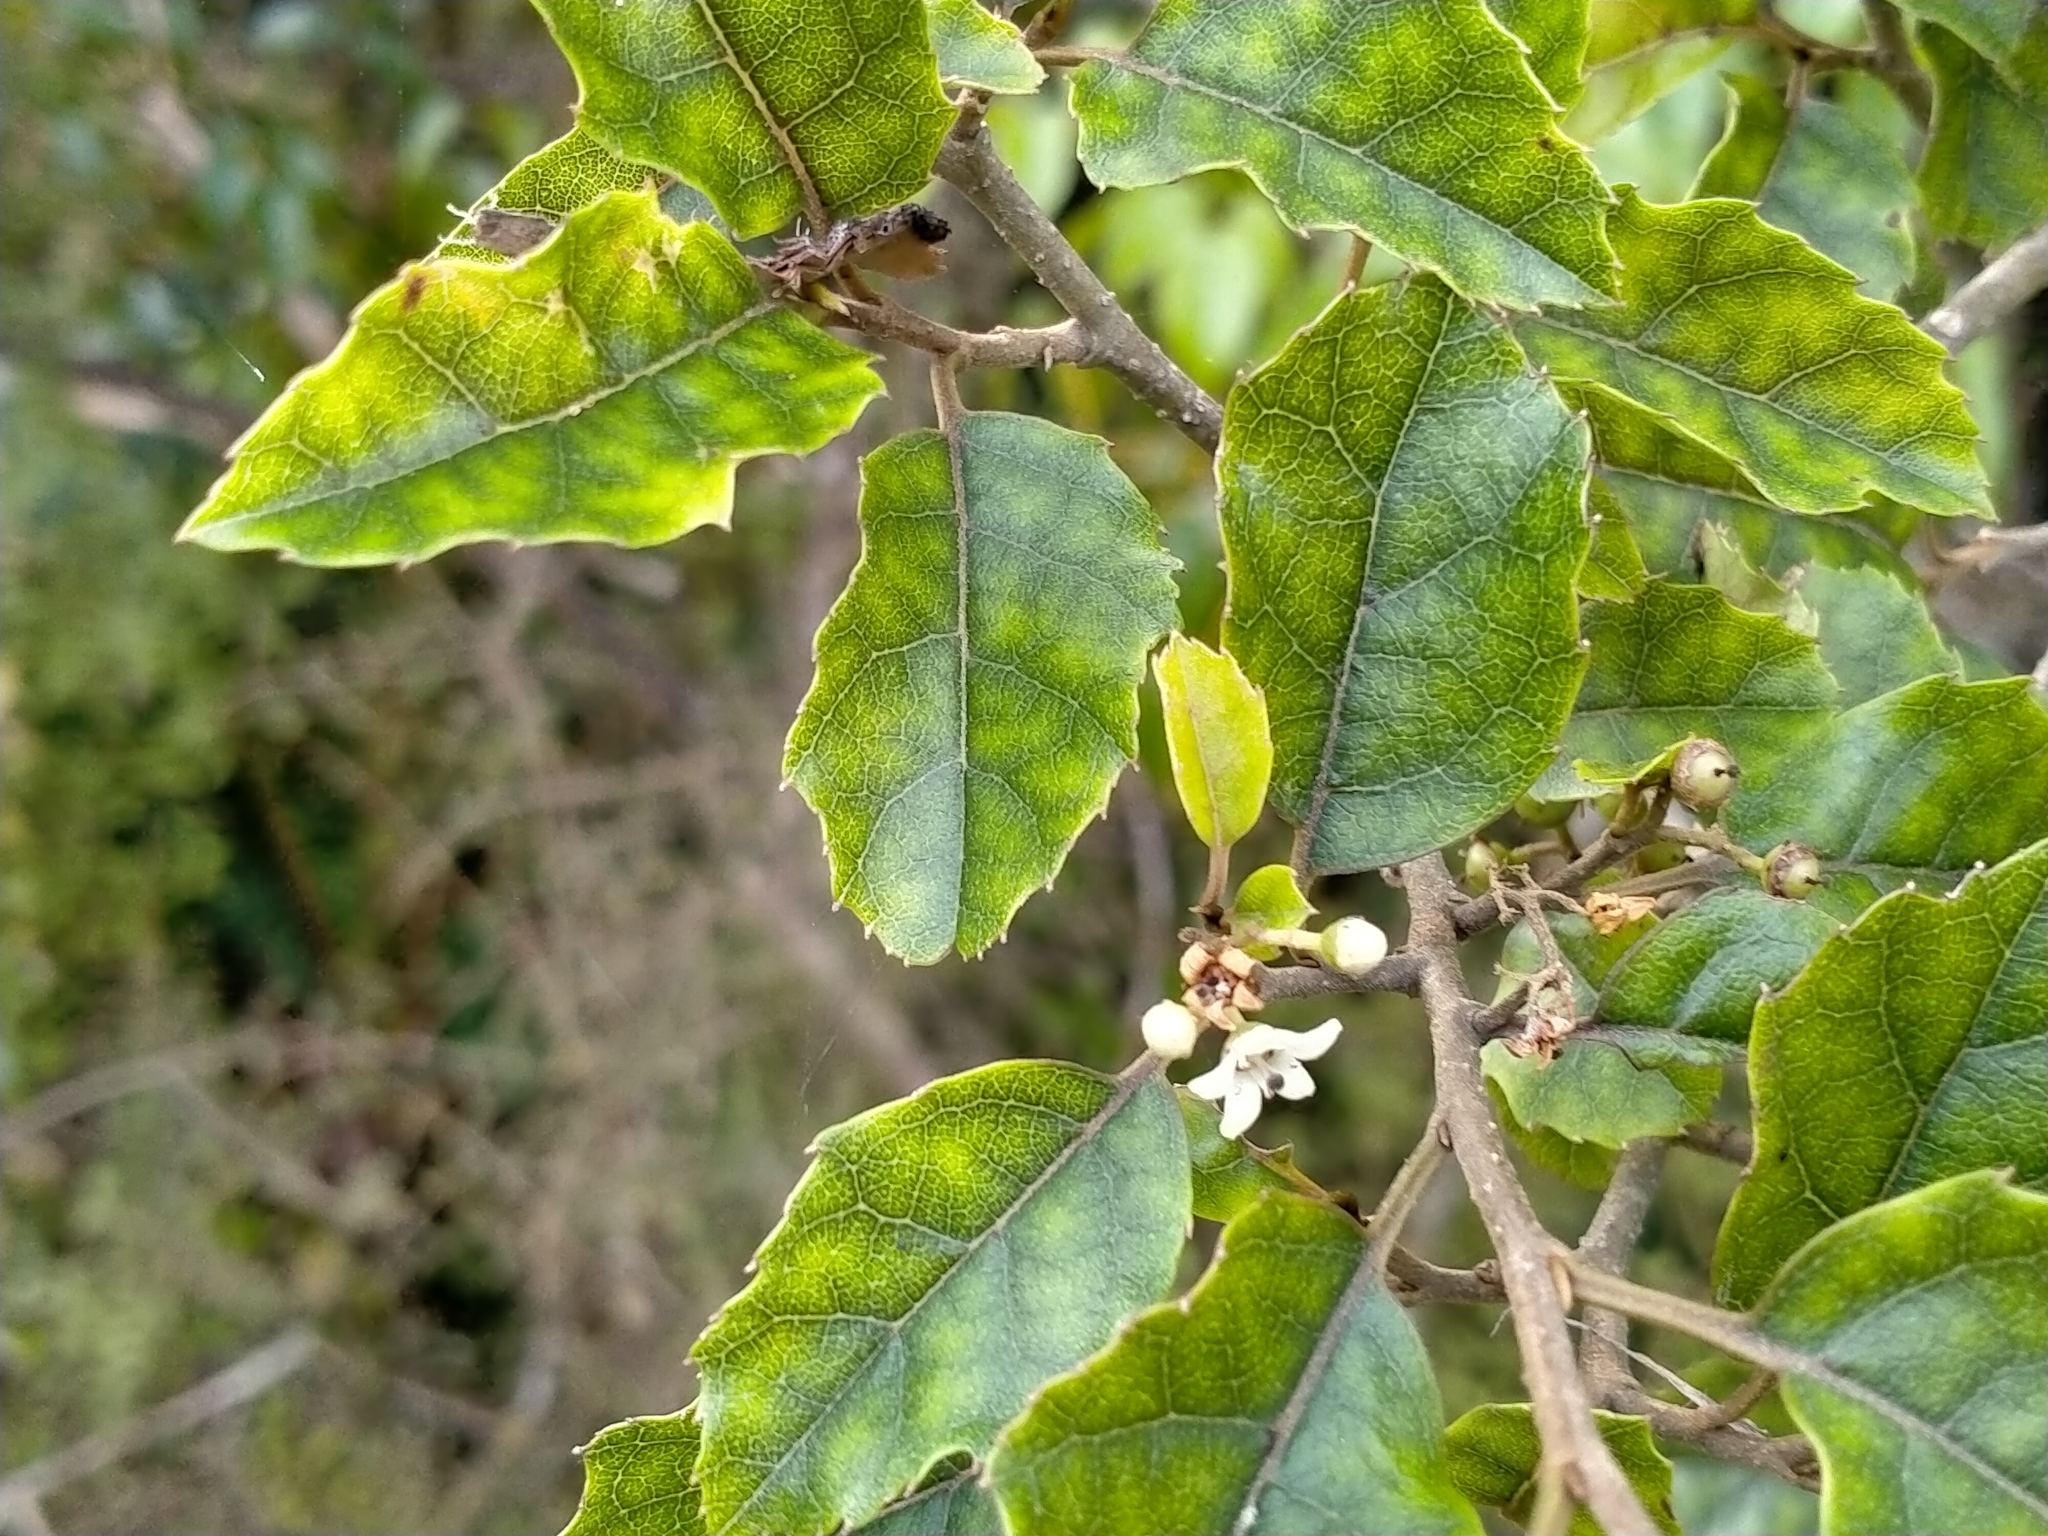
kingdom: Plantae
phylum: Tracheophyta
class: Magnoliopsida
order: Asterales
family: Rousseaceae
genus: Carpodetus
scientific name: Carpodetus serratus
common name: White mapau
